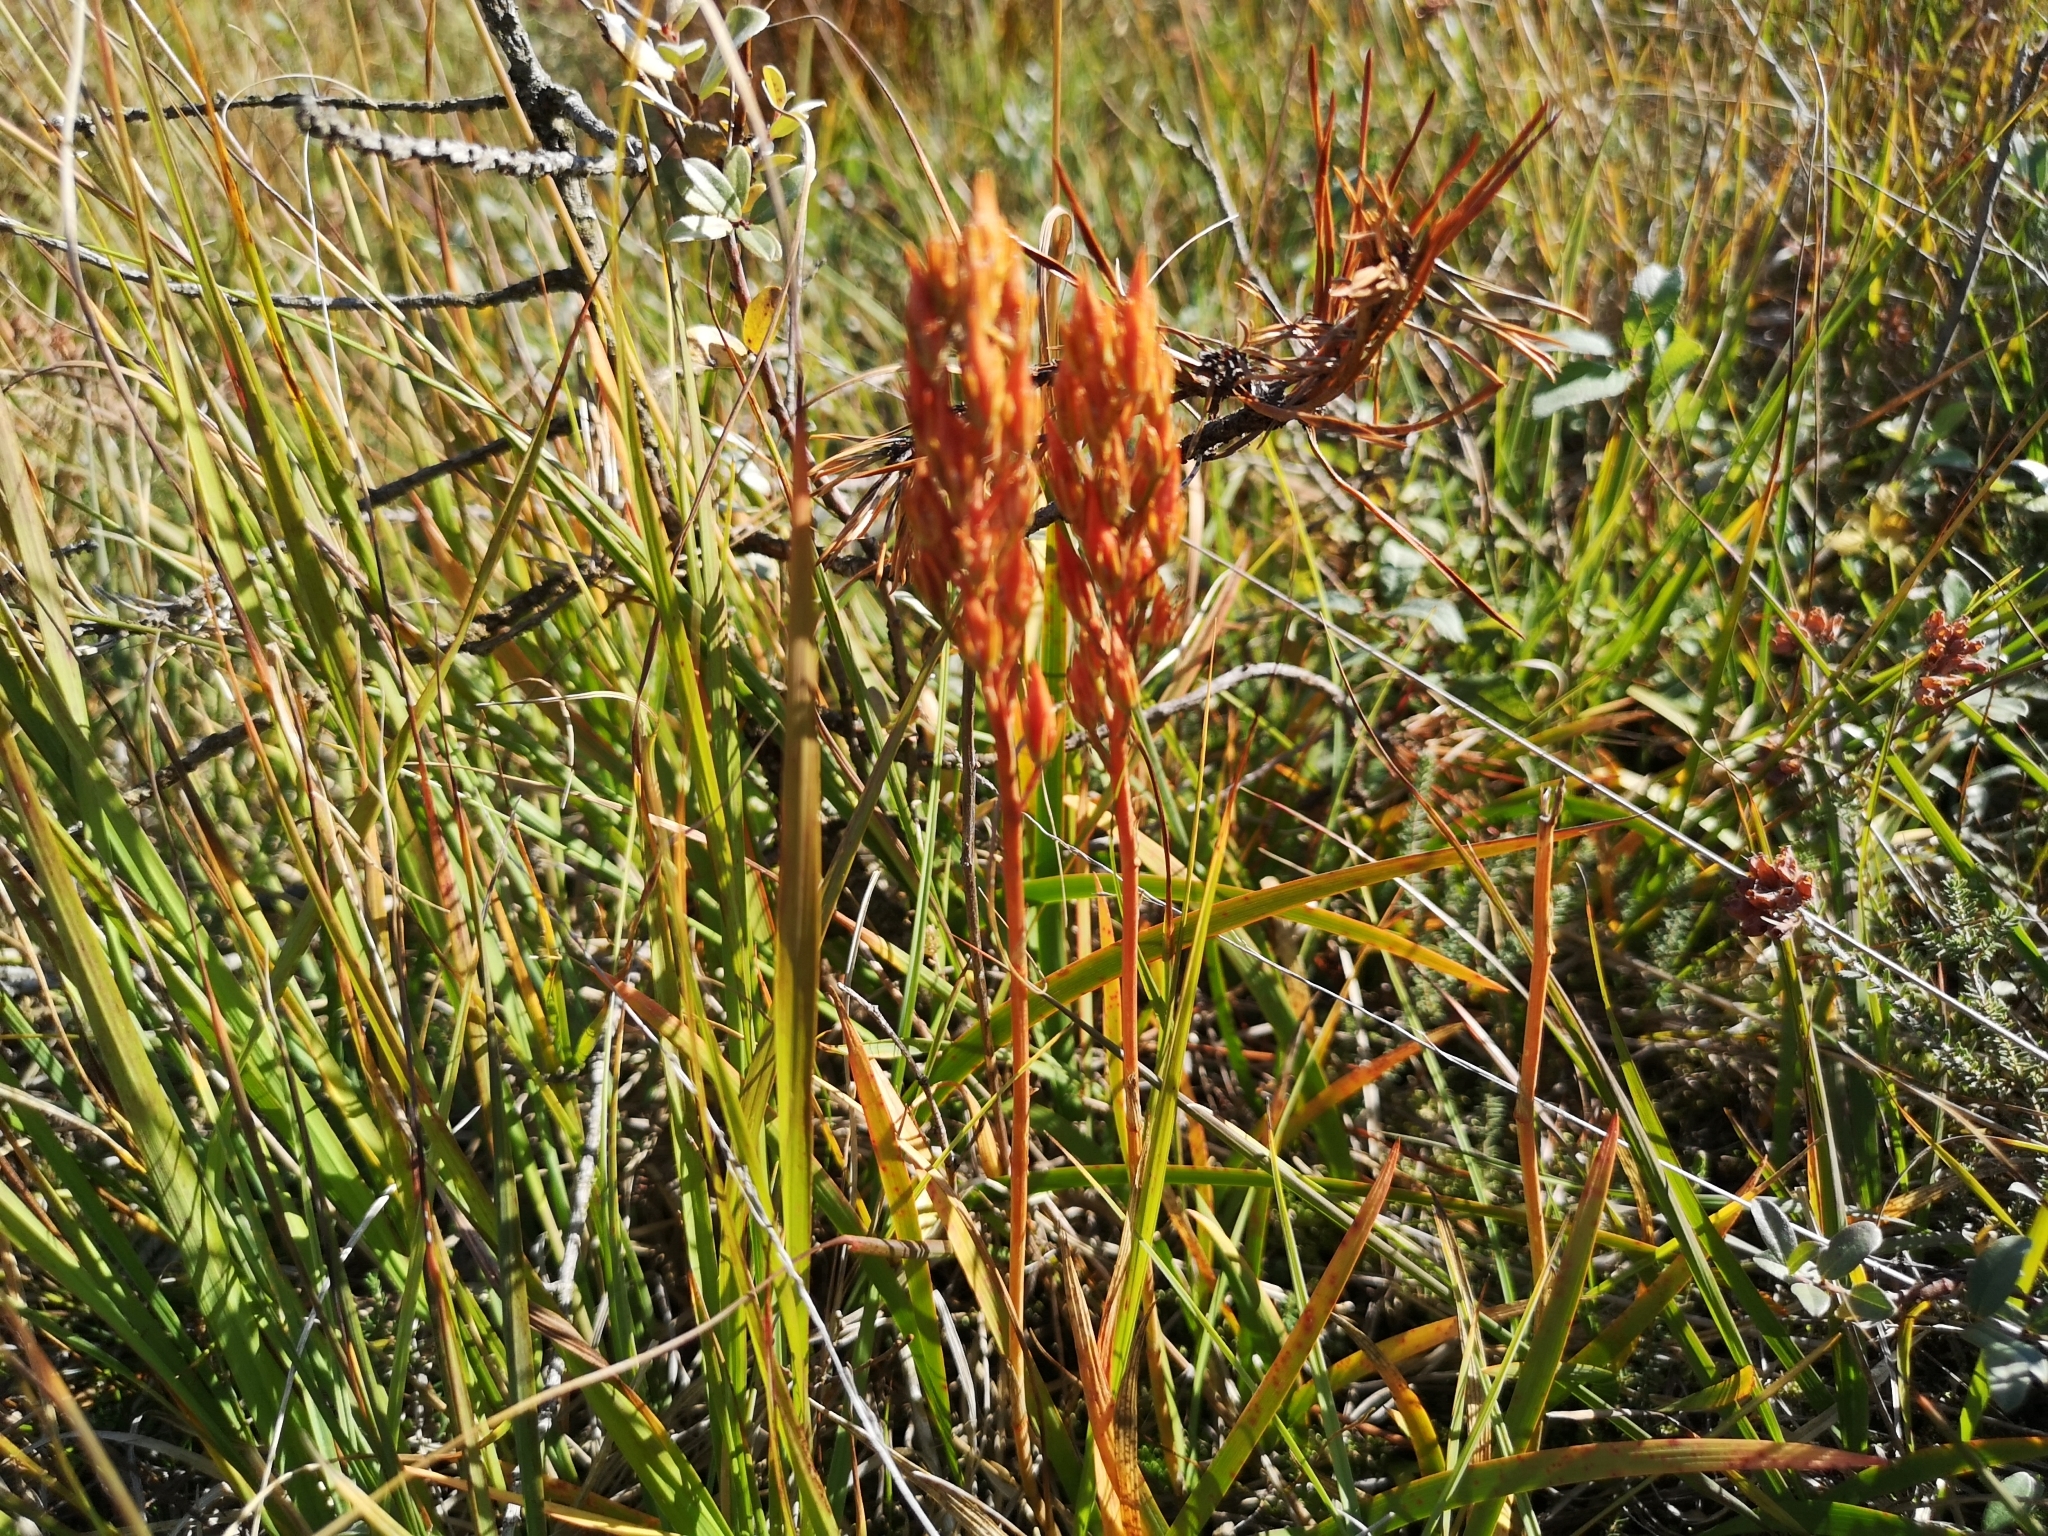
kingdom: Plantae
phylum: Tracheophyta
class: Liliopsida
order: Dioscoreales
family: Nartheciaceae
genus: Narthecium
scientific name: Narthecium ossifragum
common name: Bog asphodel
